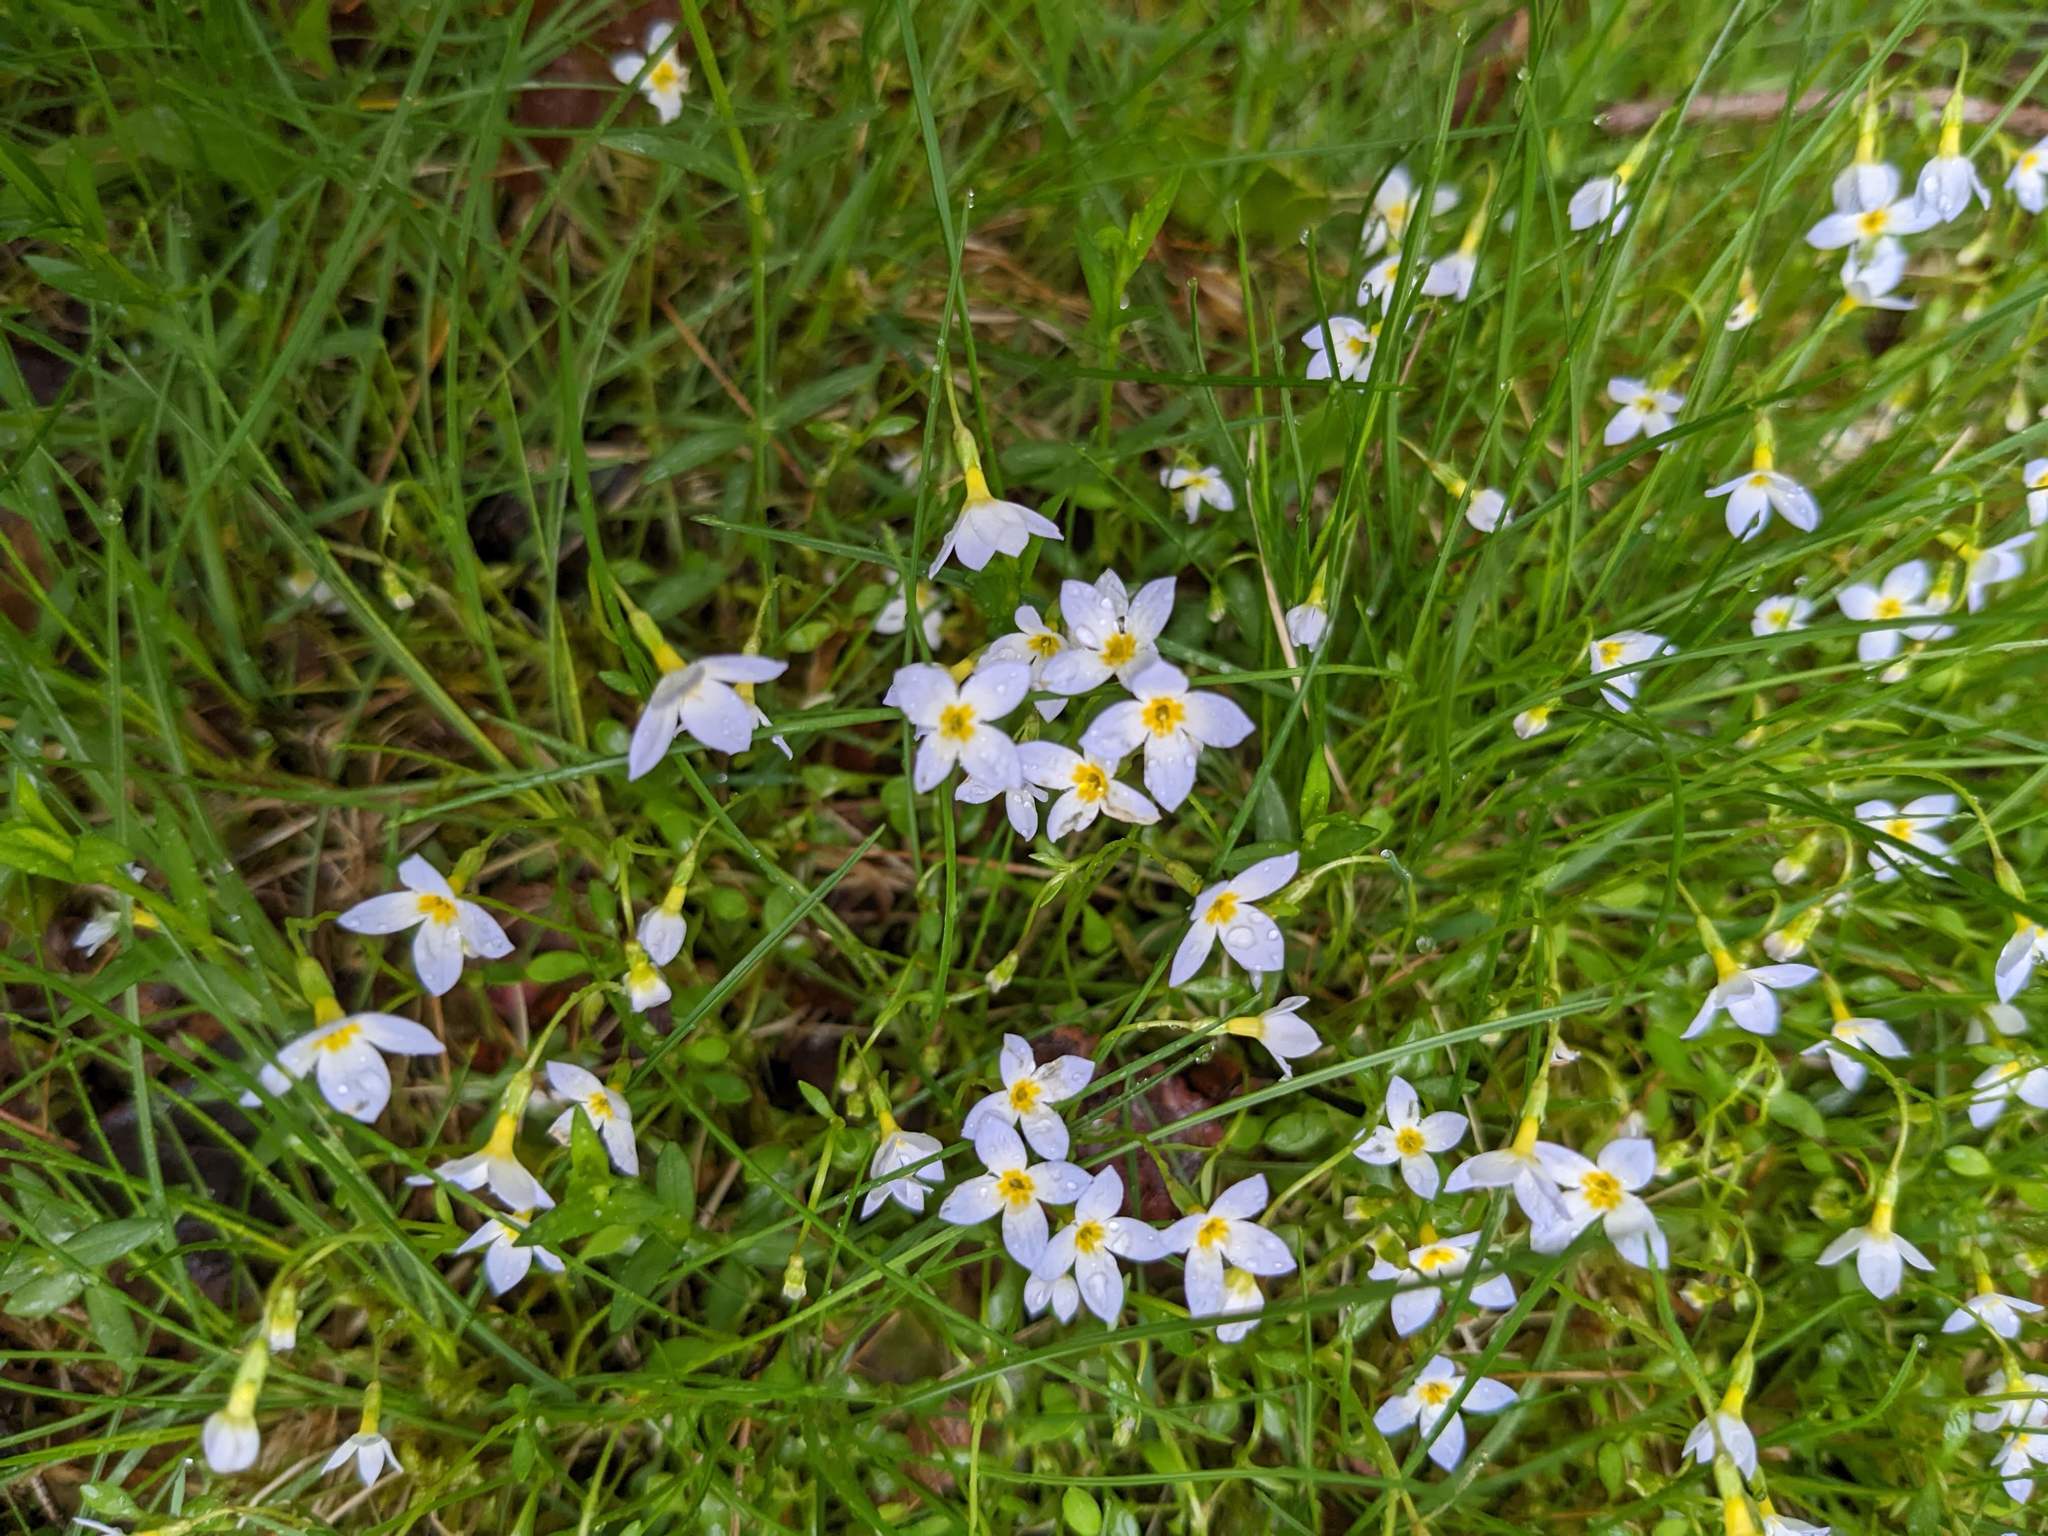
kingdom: Plantae
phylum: Tracheophyta
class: Magnoliopsida
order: Gentianales
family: Rubiaceae
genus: Houstonia
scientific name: Houstonia caerulea
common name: Bluets
